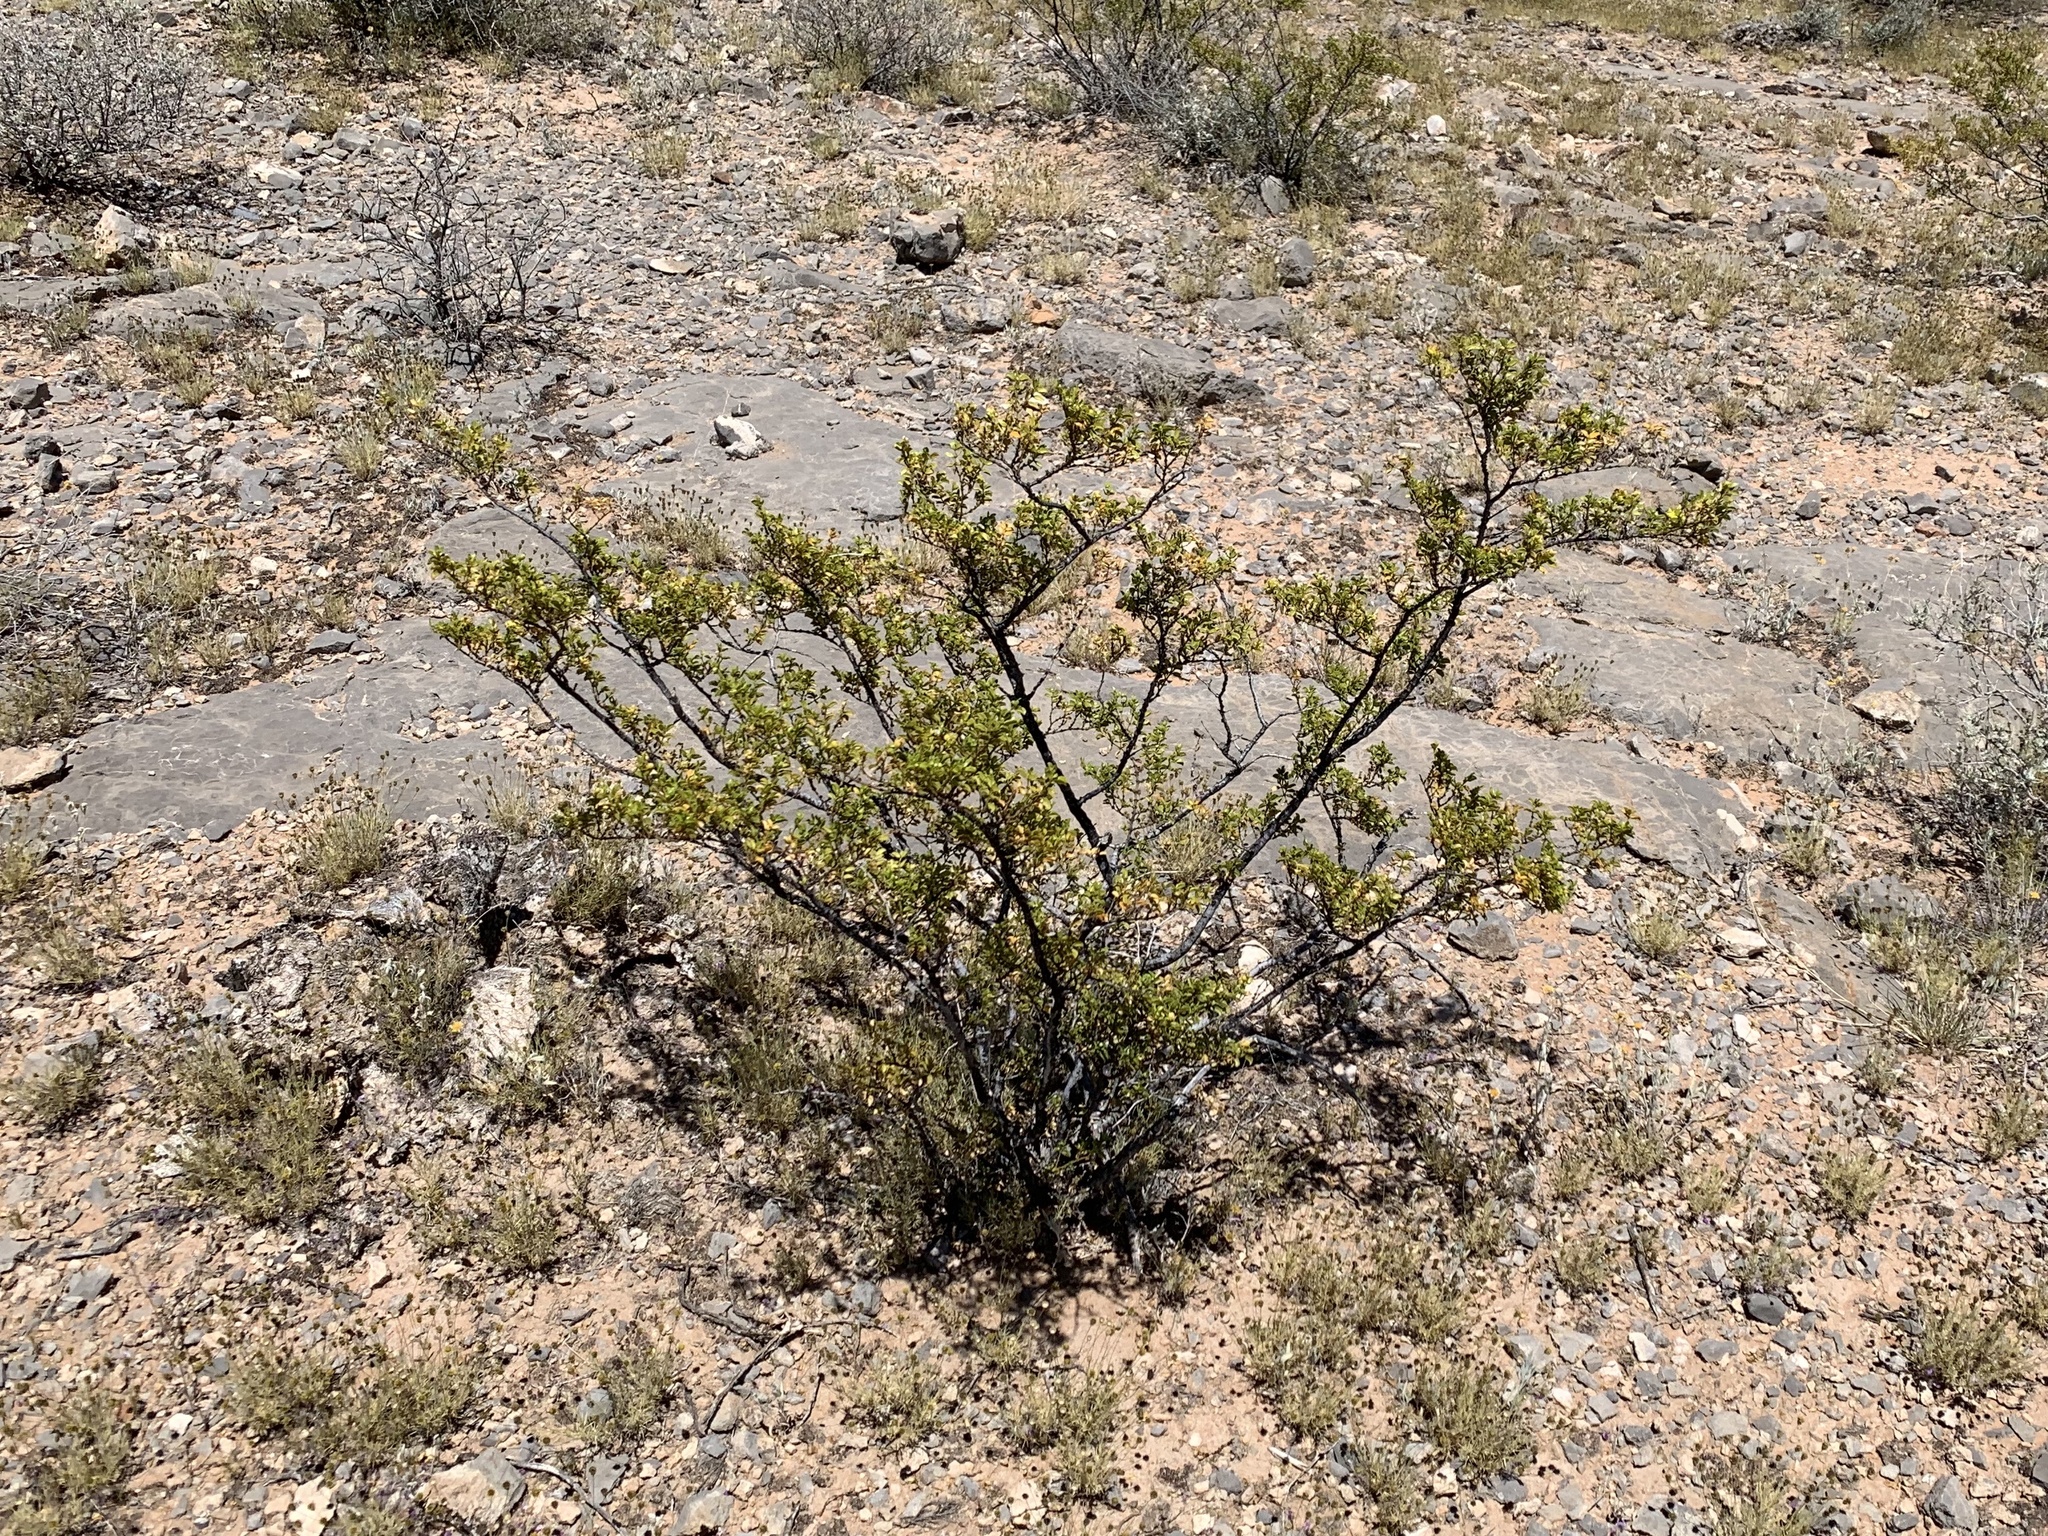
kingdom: Plantae
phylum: Tracheophyta
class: Magnoliopsida
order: Zygophyllales
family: Zygophyllaceae
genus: Larrea
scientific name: Larrea tridentata
